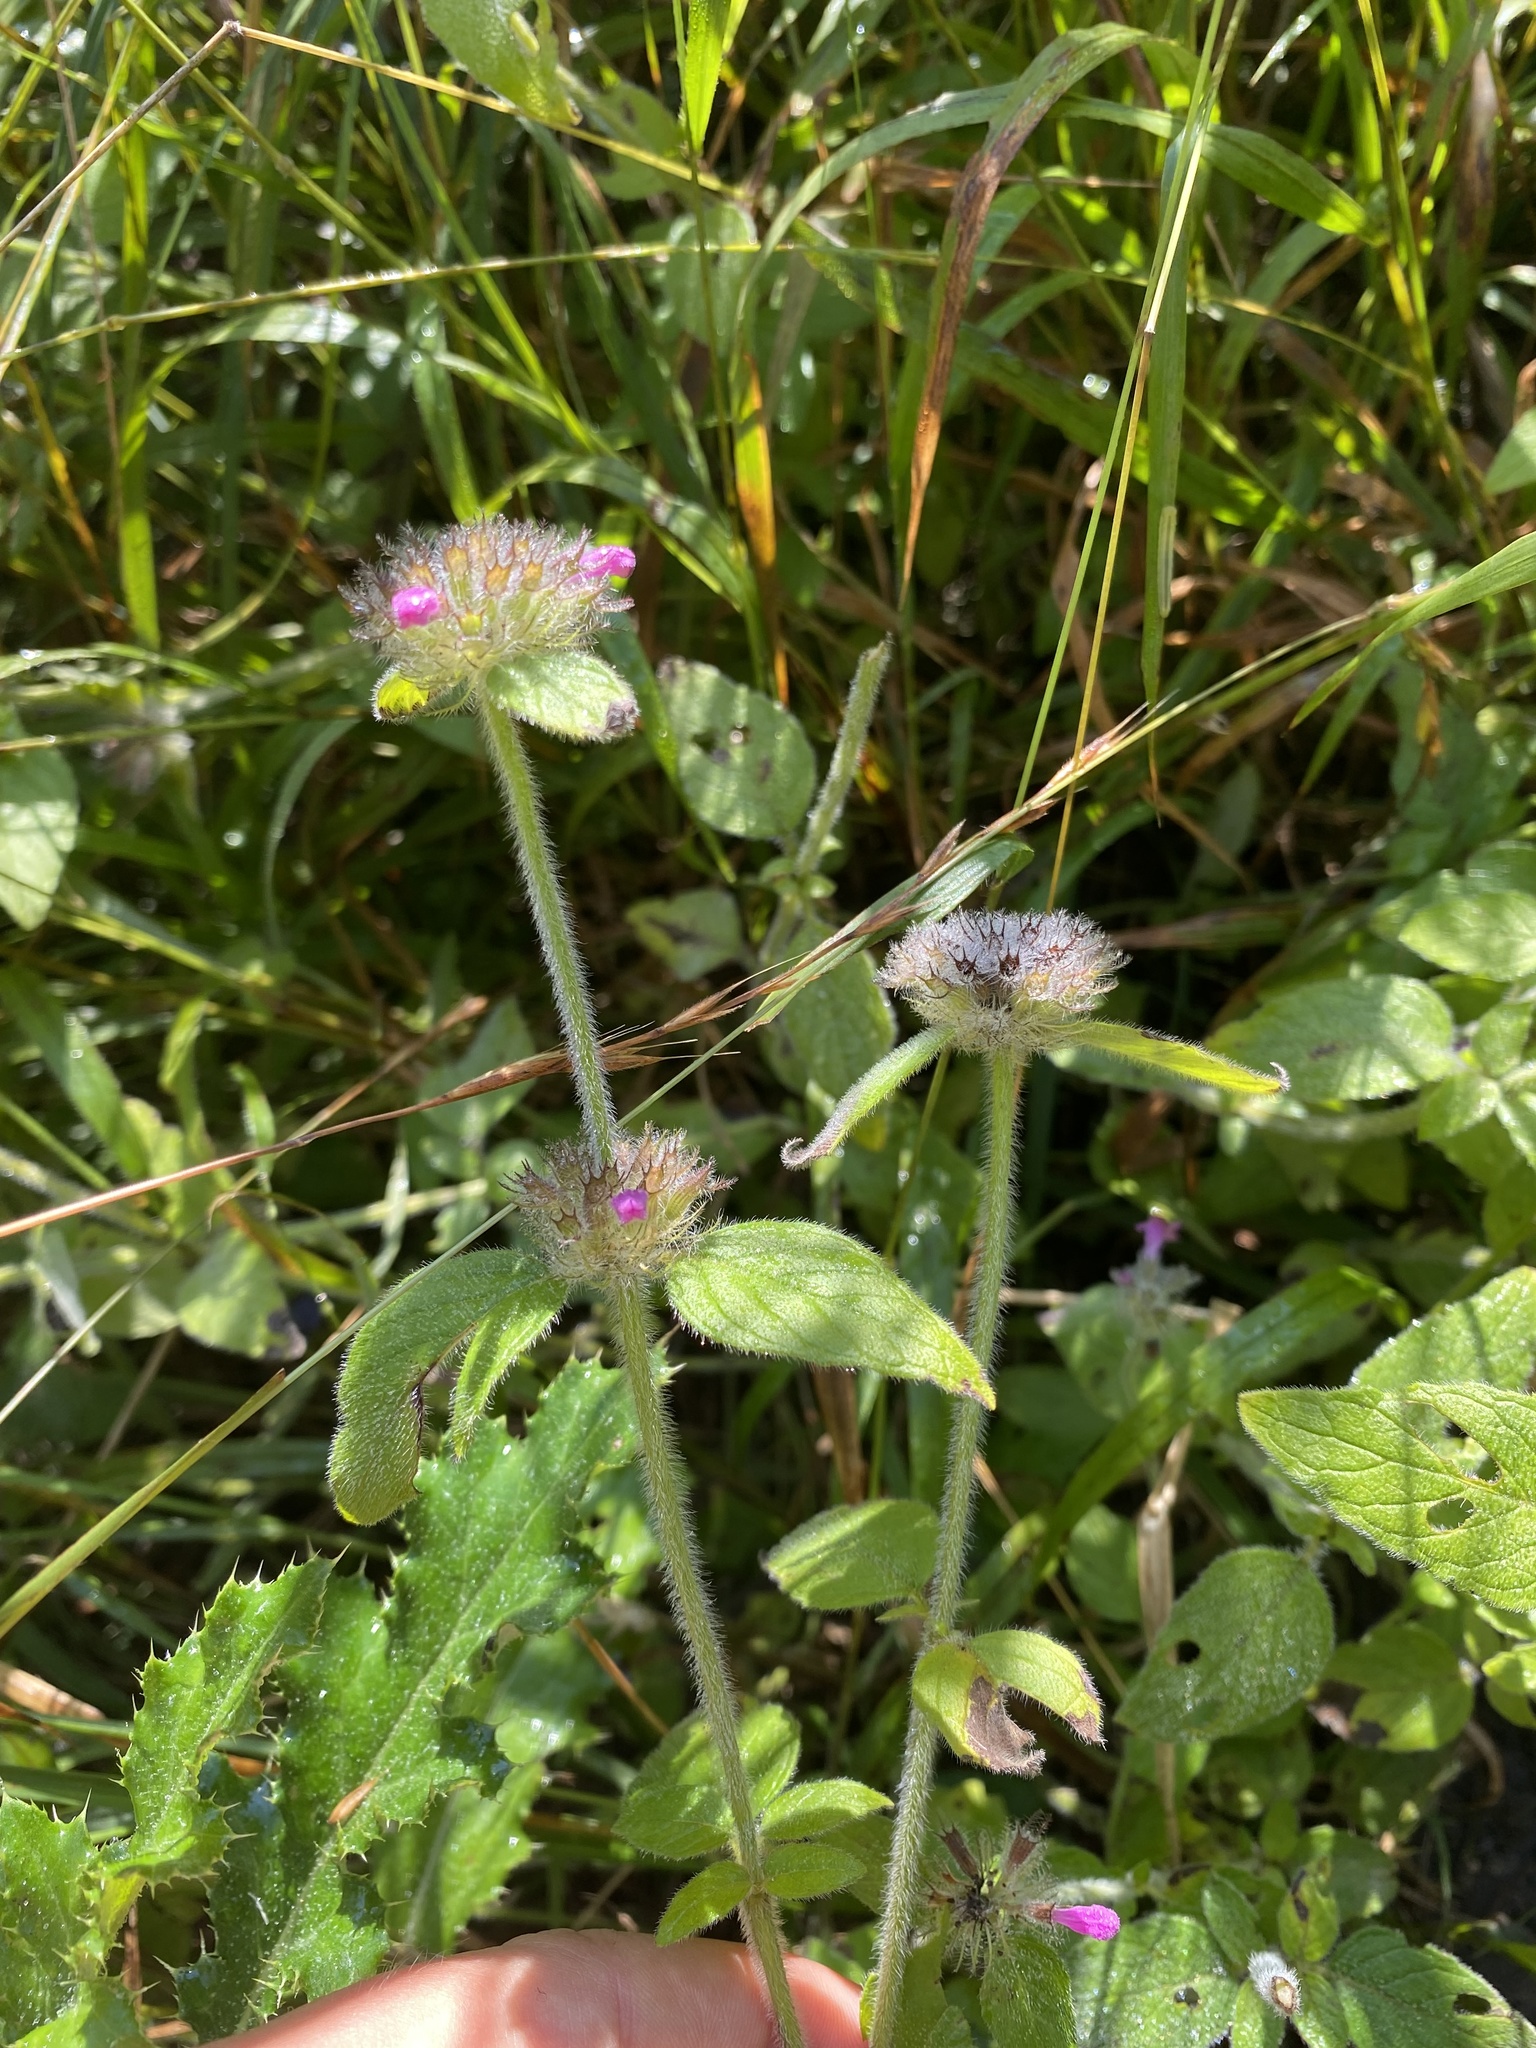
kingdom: Plantae
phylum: Tracheophyta
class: Magnoliopsida
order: Lamiales
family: Lamiaceae
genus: Clinopodium
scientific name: Clinopodium vulgare
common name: Wild basil
